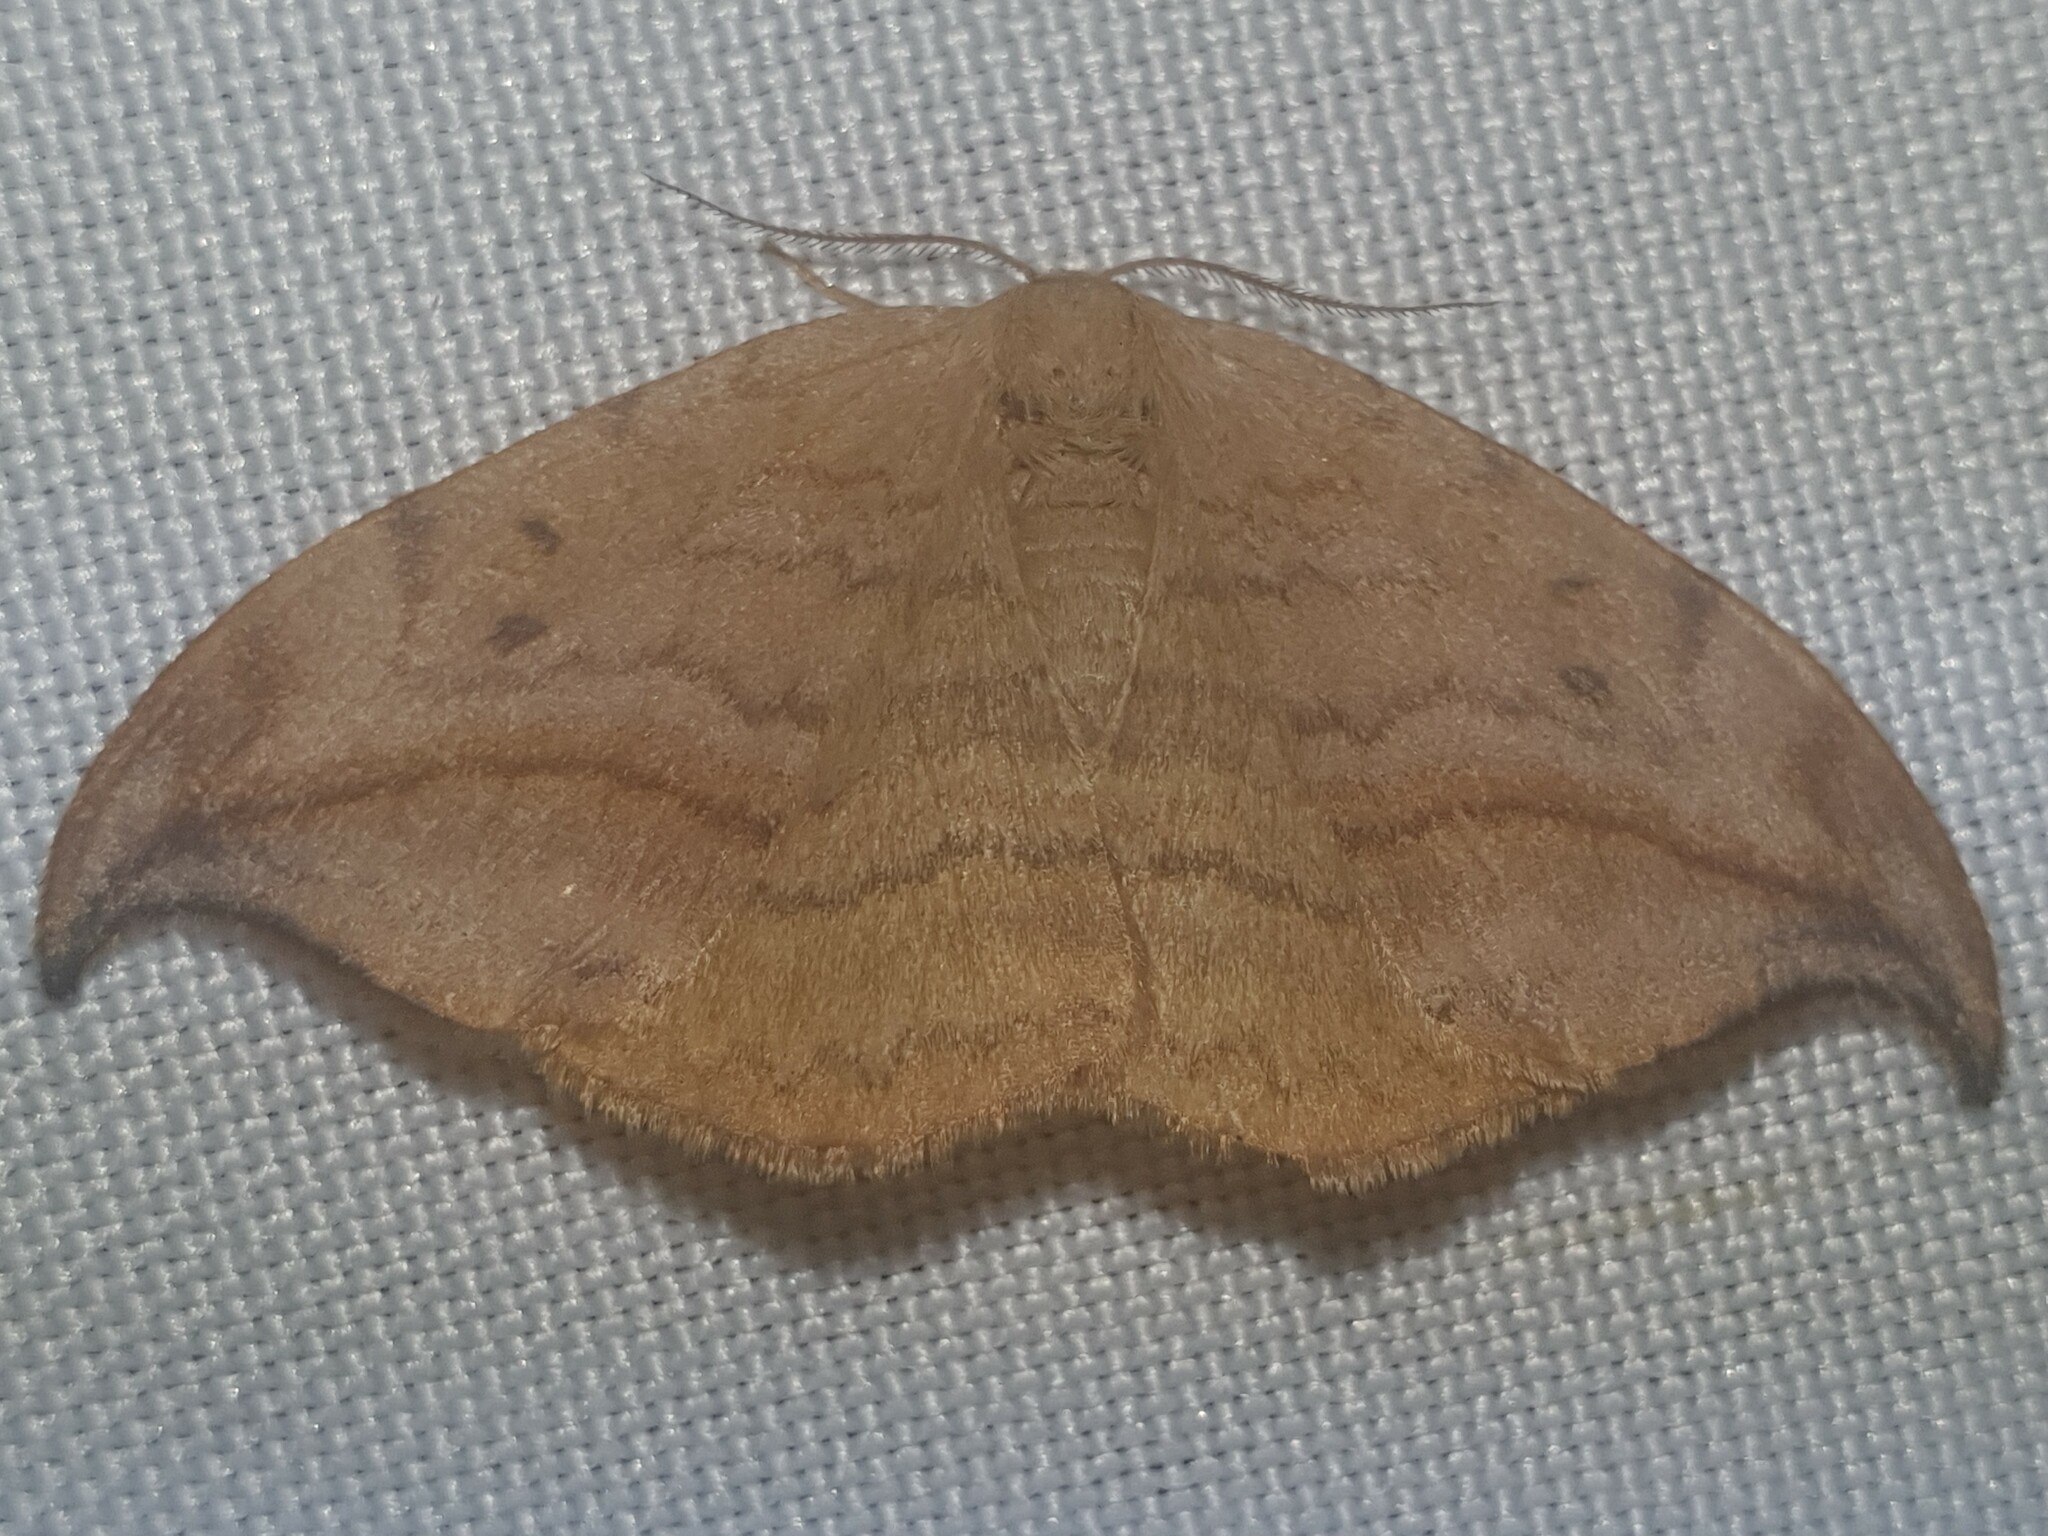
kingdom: Animalia
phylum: Arthropoda
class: Insecta
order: Lepidoptera
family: Drepanidae
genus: Drepana
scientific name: Drepana curvatula
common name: Dusky hook-tip
